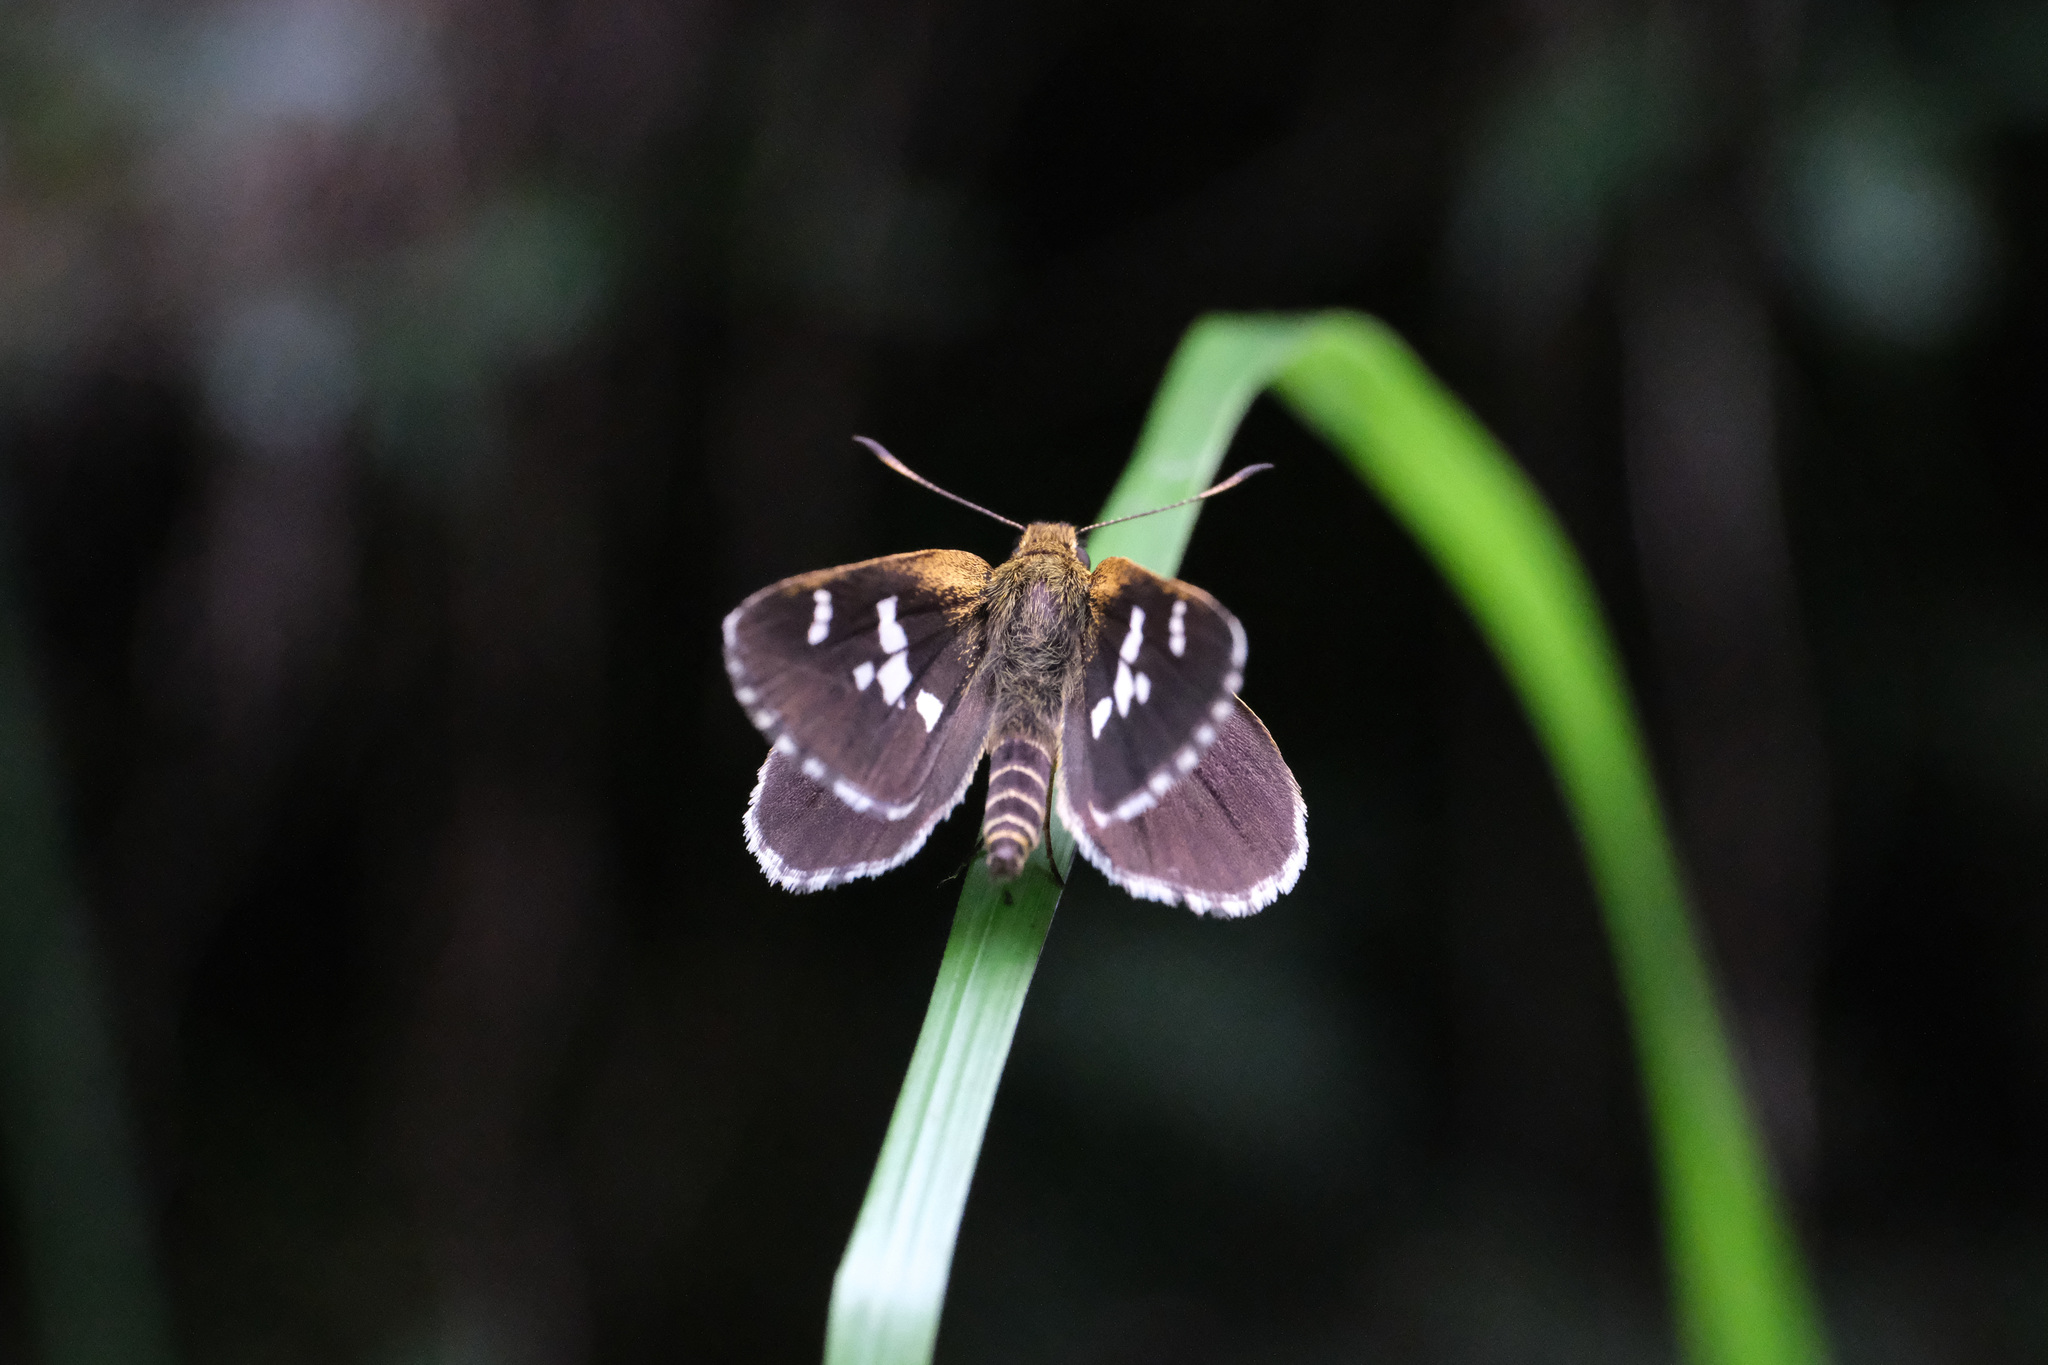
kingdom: Animalia
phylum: Arthropoda
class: Insecta
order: Lepidoptera
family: Hesperiidae
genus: Isoteinon
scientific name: Isoteinon lamprospilus
